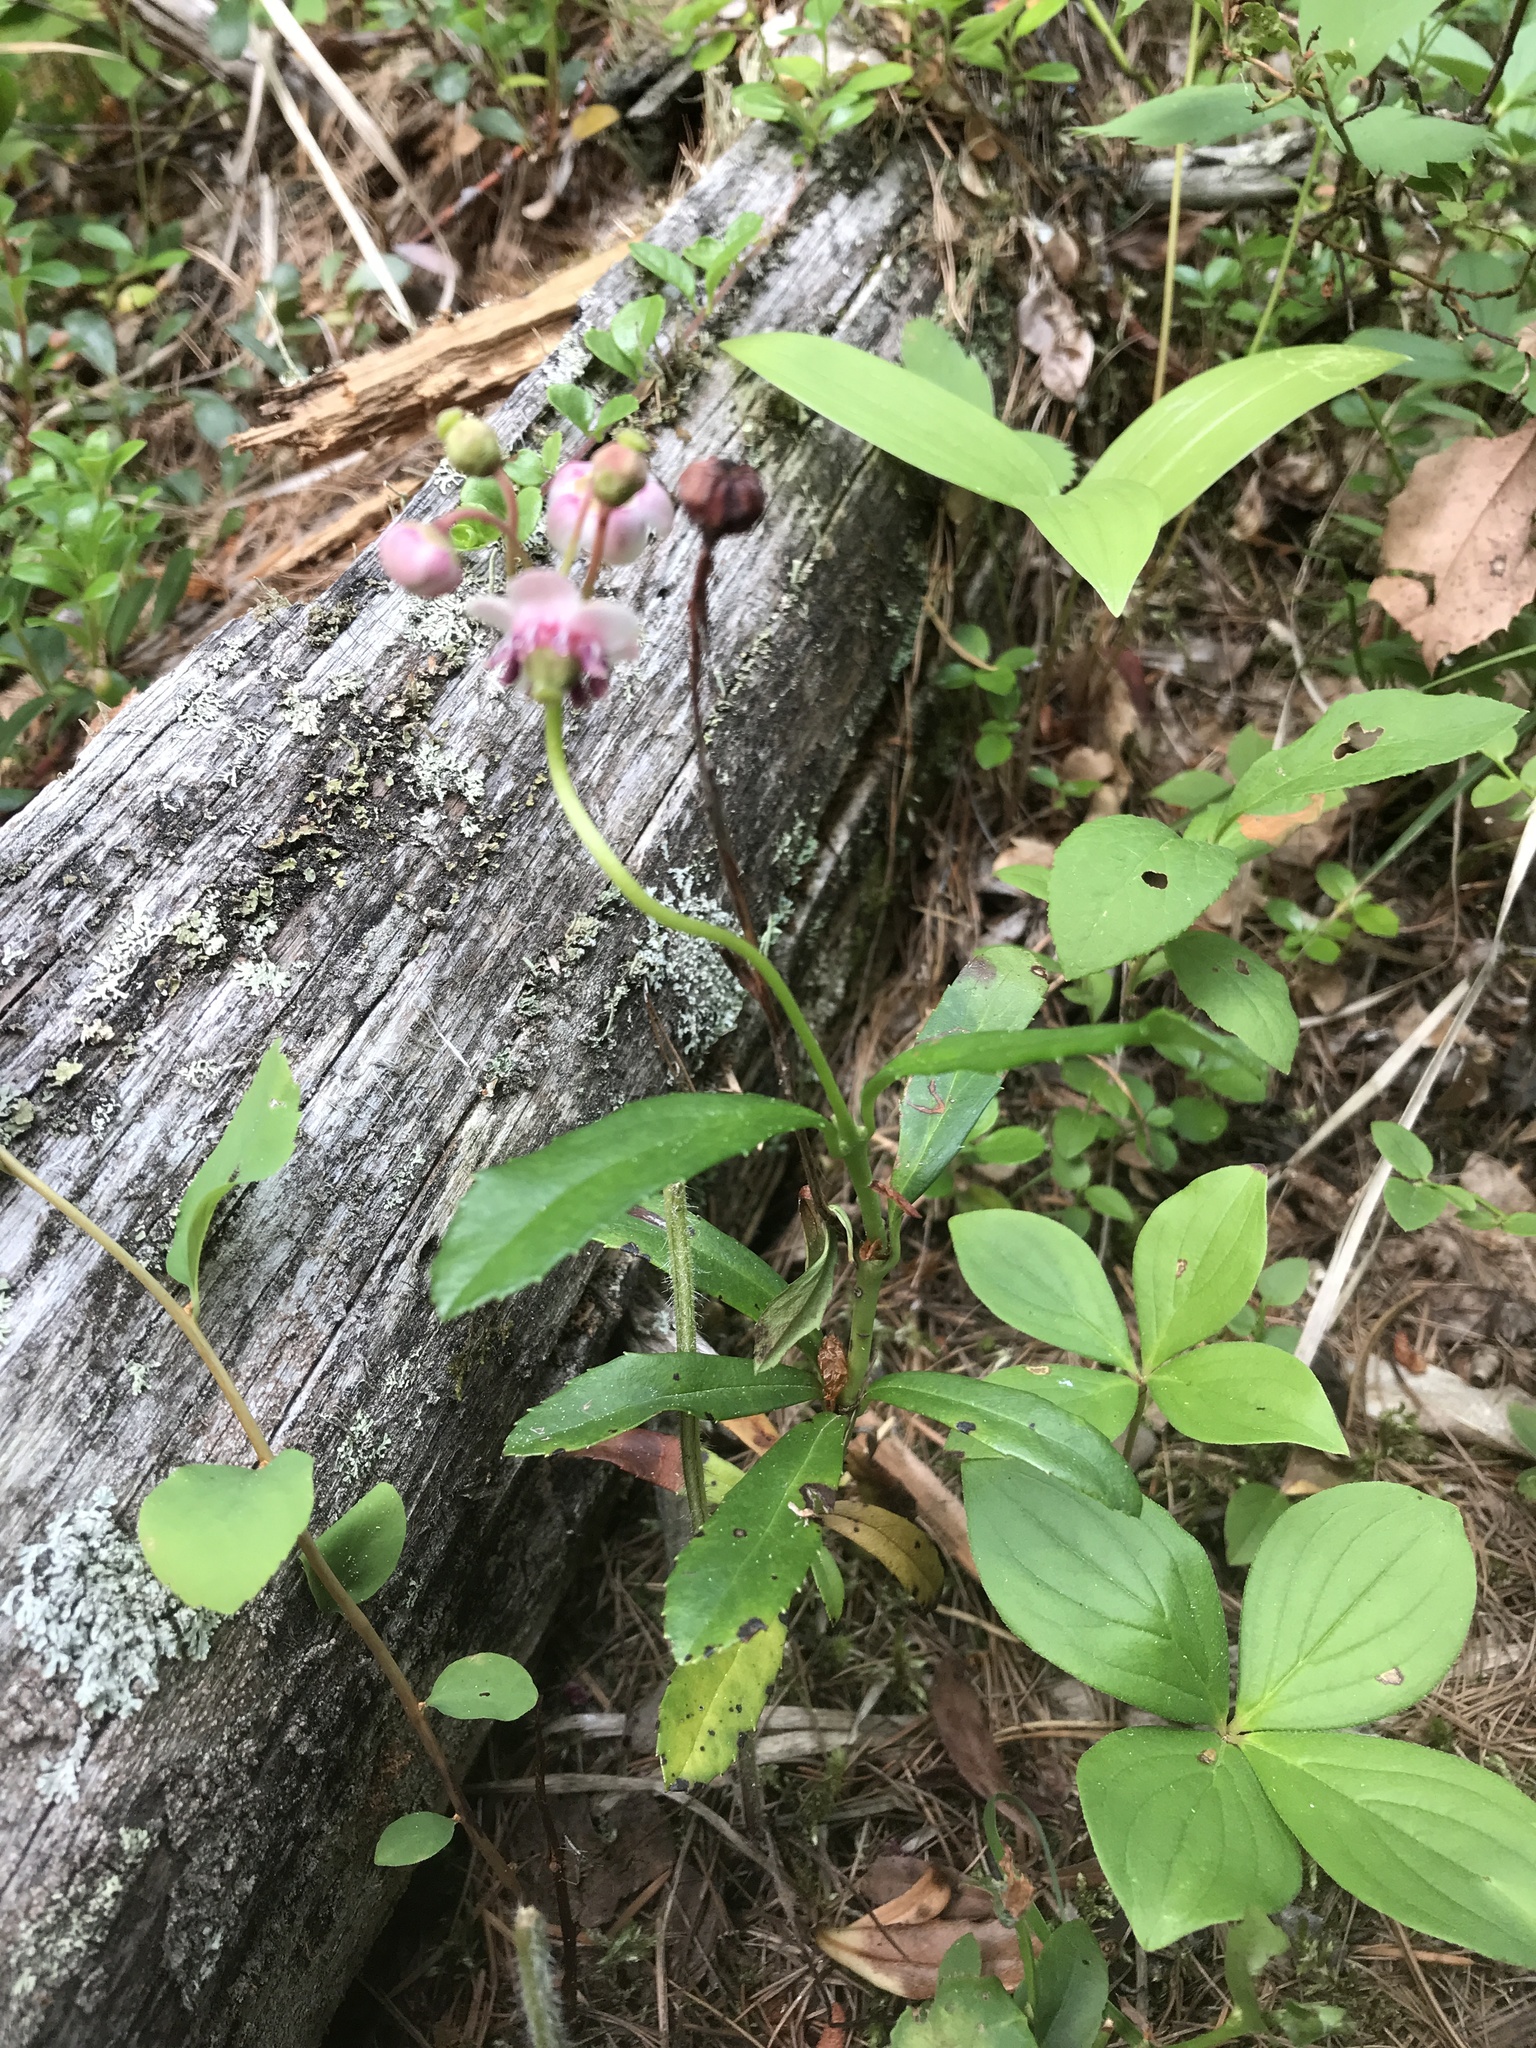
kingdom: Plantae
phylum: Tracheophyta
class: Magnoliopsida
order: Ericales
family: Ericaceae
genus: Chimaphila
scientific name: Chimaphila umbellata
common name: Pipsissewa
